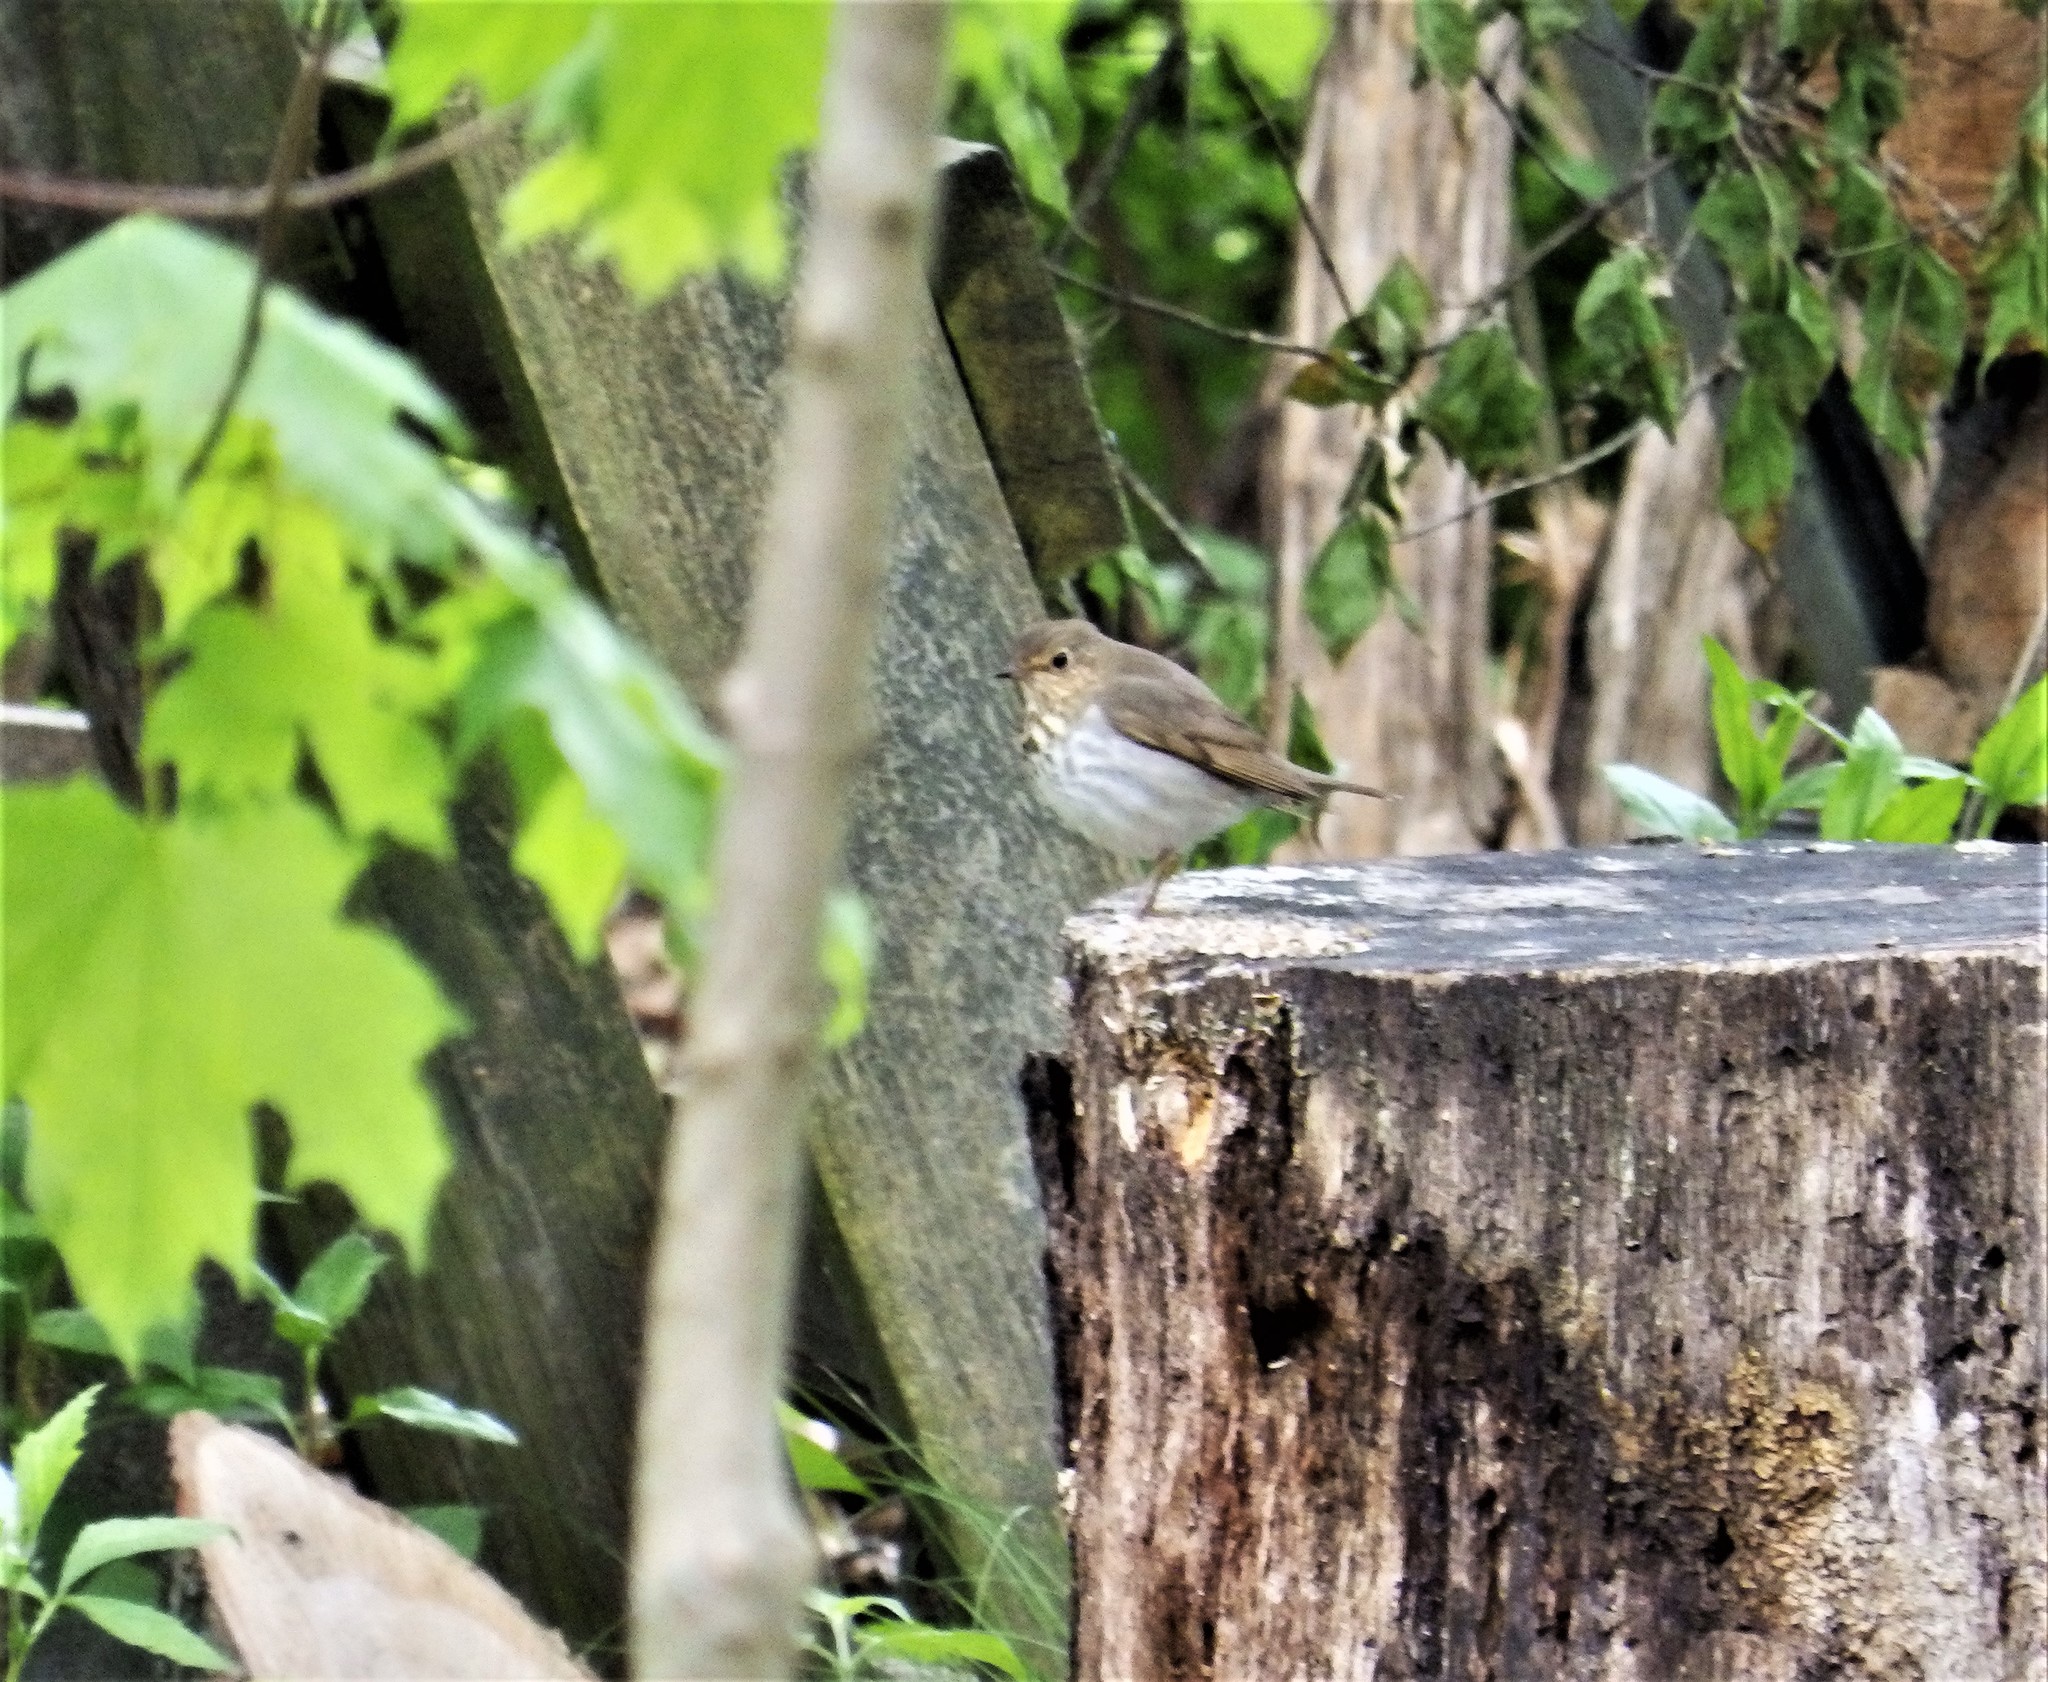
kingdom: Animalia
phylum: Chordata
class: Aves
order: Passeriformes
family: Turdidae
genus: Catharus
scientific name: Catharus ustulatus
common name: Swainson's thrush
